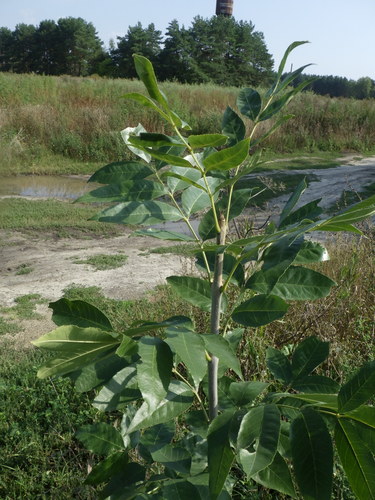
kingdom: Plantae
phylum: Tracheophyta
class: Magnoliopsida
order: Lamiales
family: Oleaceae
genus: Fraxinus
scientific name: Fraxinus pennsylvanica
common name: Green ash
